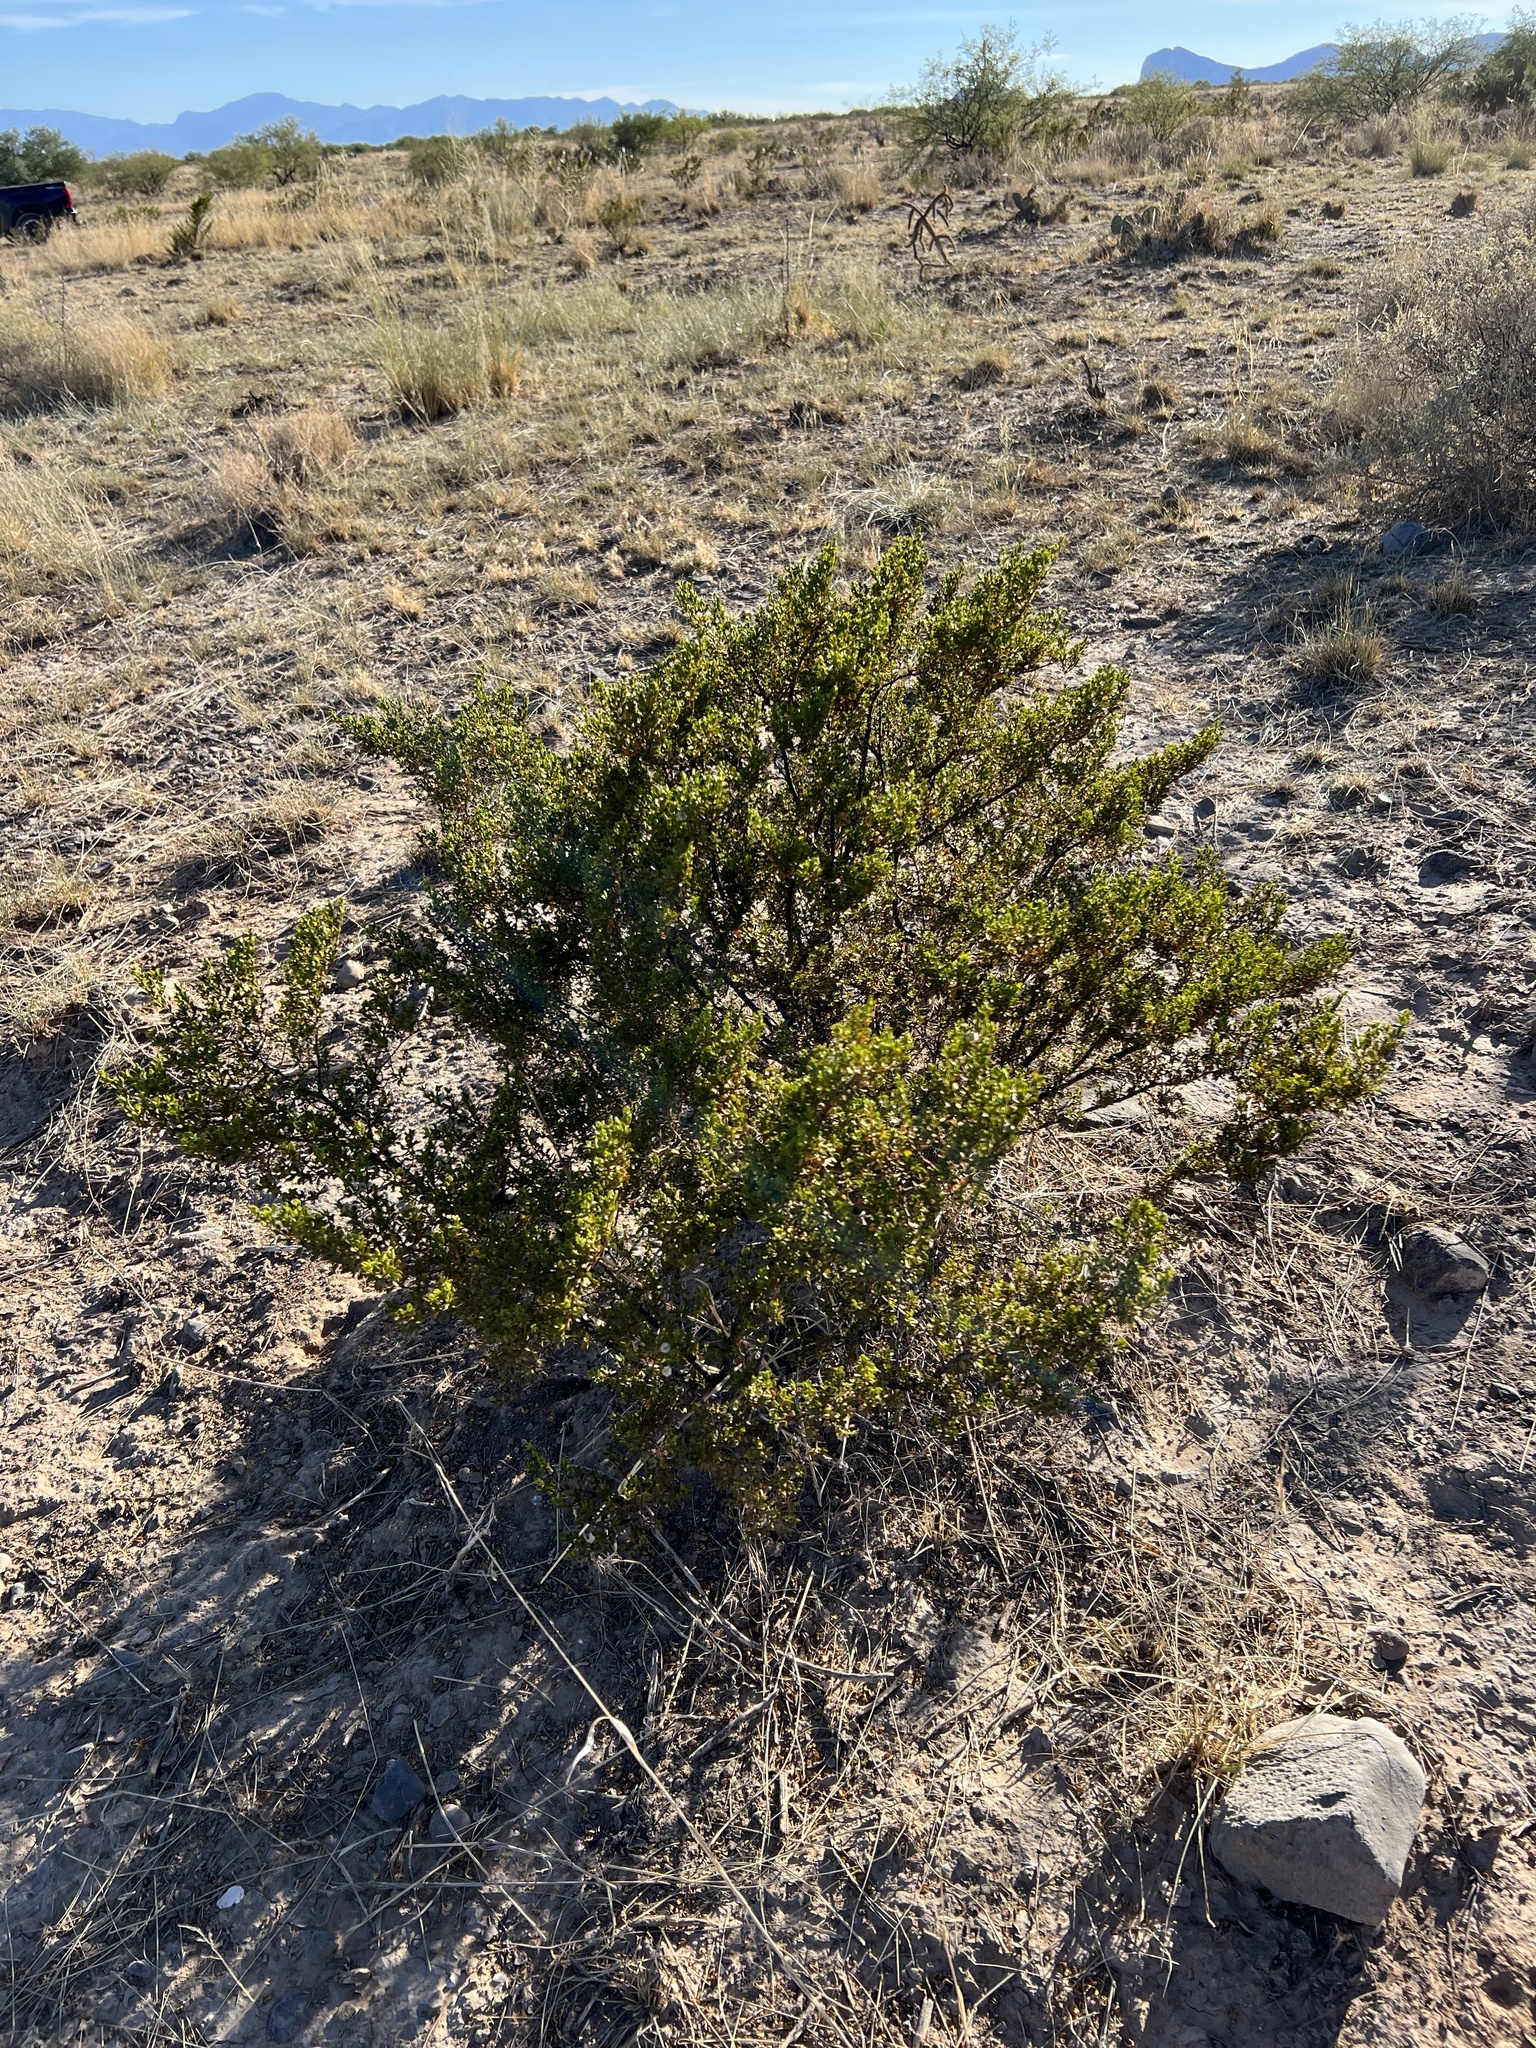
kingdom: Plantae
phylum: Tracheophyta
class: Magnoliopsida
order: Zygophyllales
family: Zygophyllaceae
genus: Larrea
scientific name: Larrea tridentata
